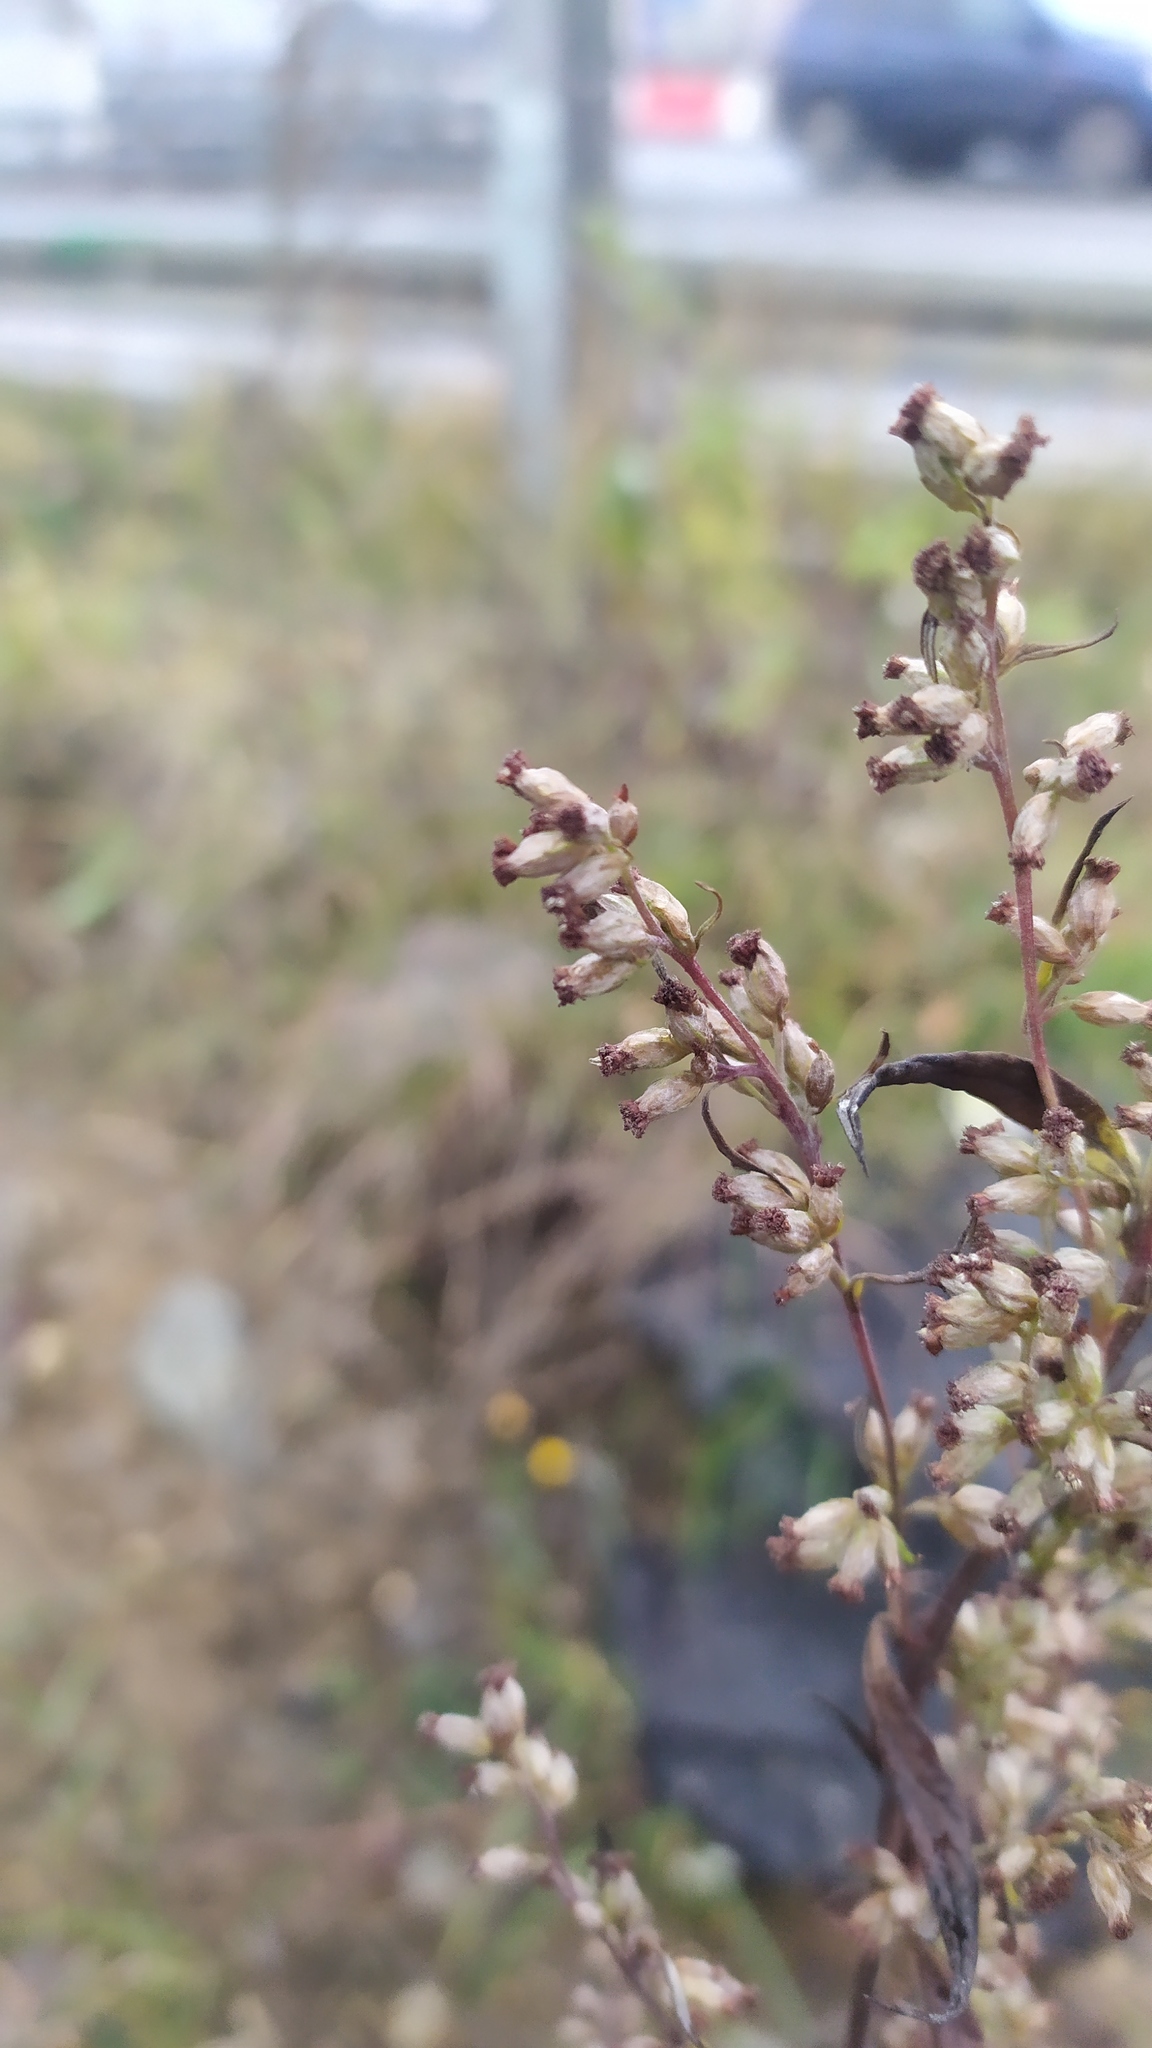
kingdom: Plantae
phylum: Tracheophyta
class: Magnoliopsida
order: Asterales
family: Asteraceae
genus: Artemisia
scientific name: Artemisia vulgaris
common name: Mugwort
